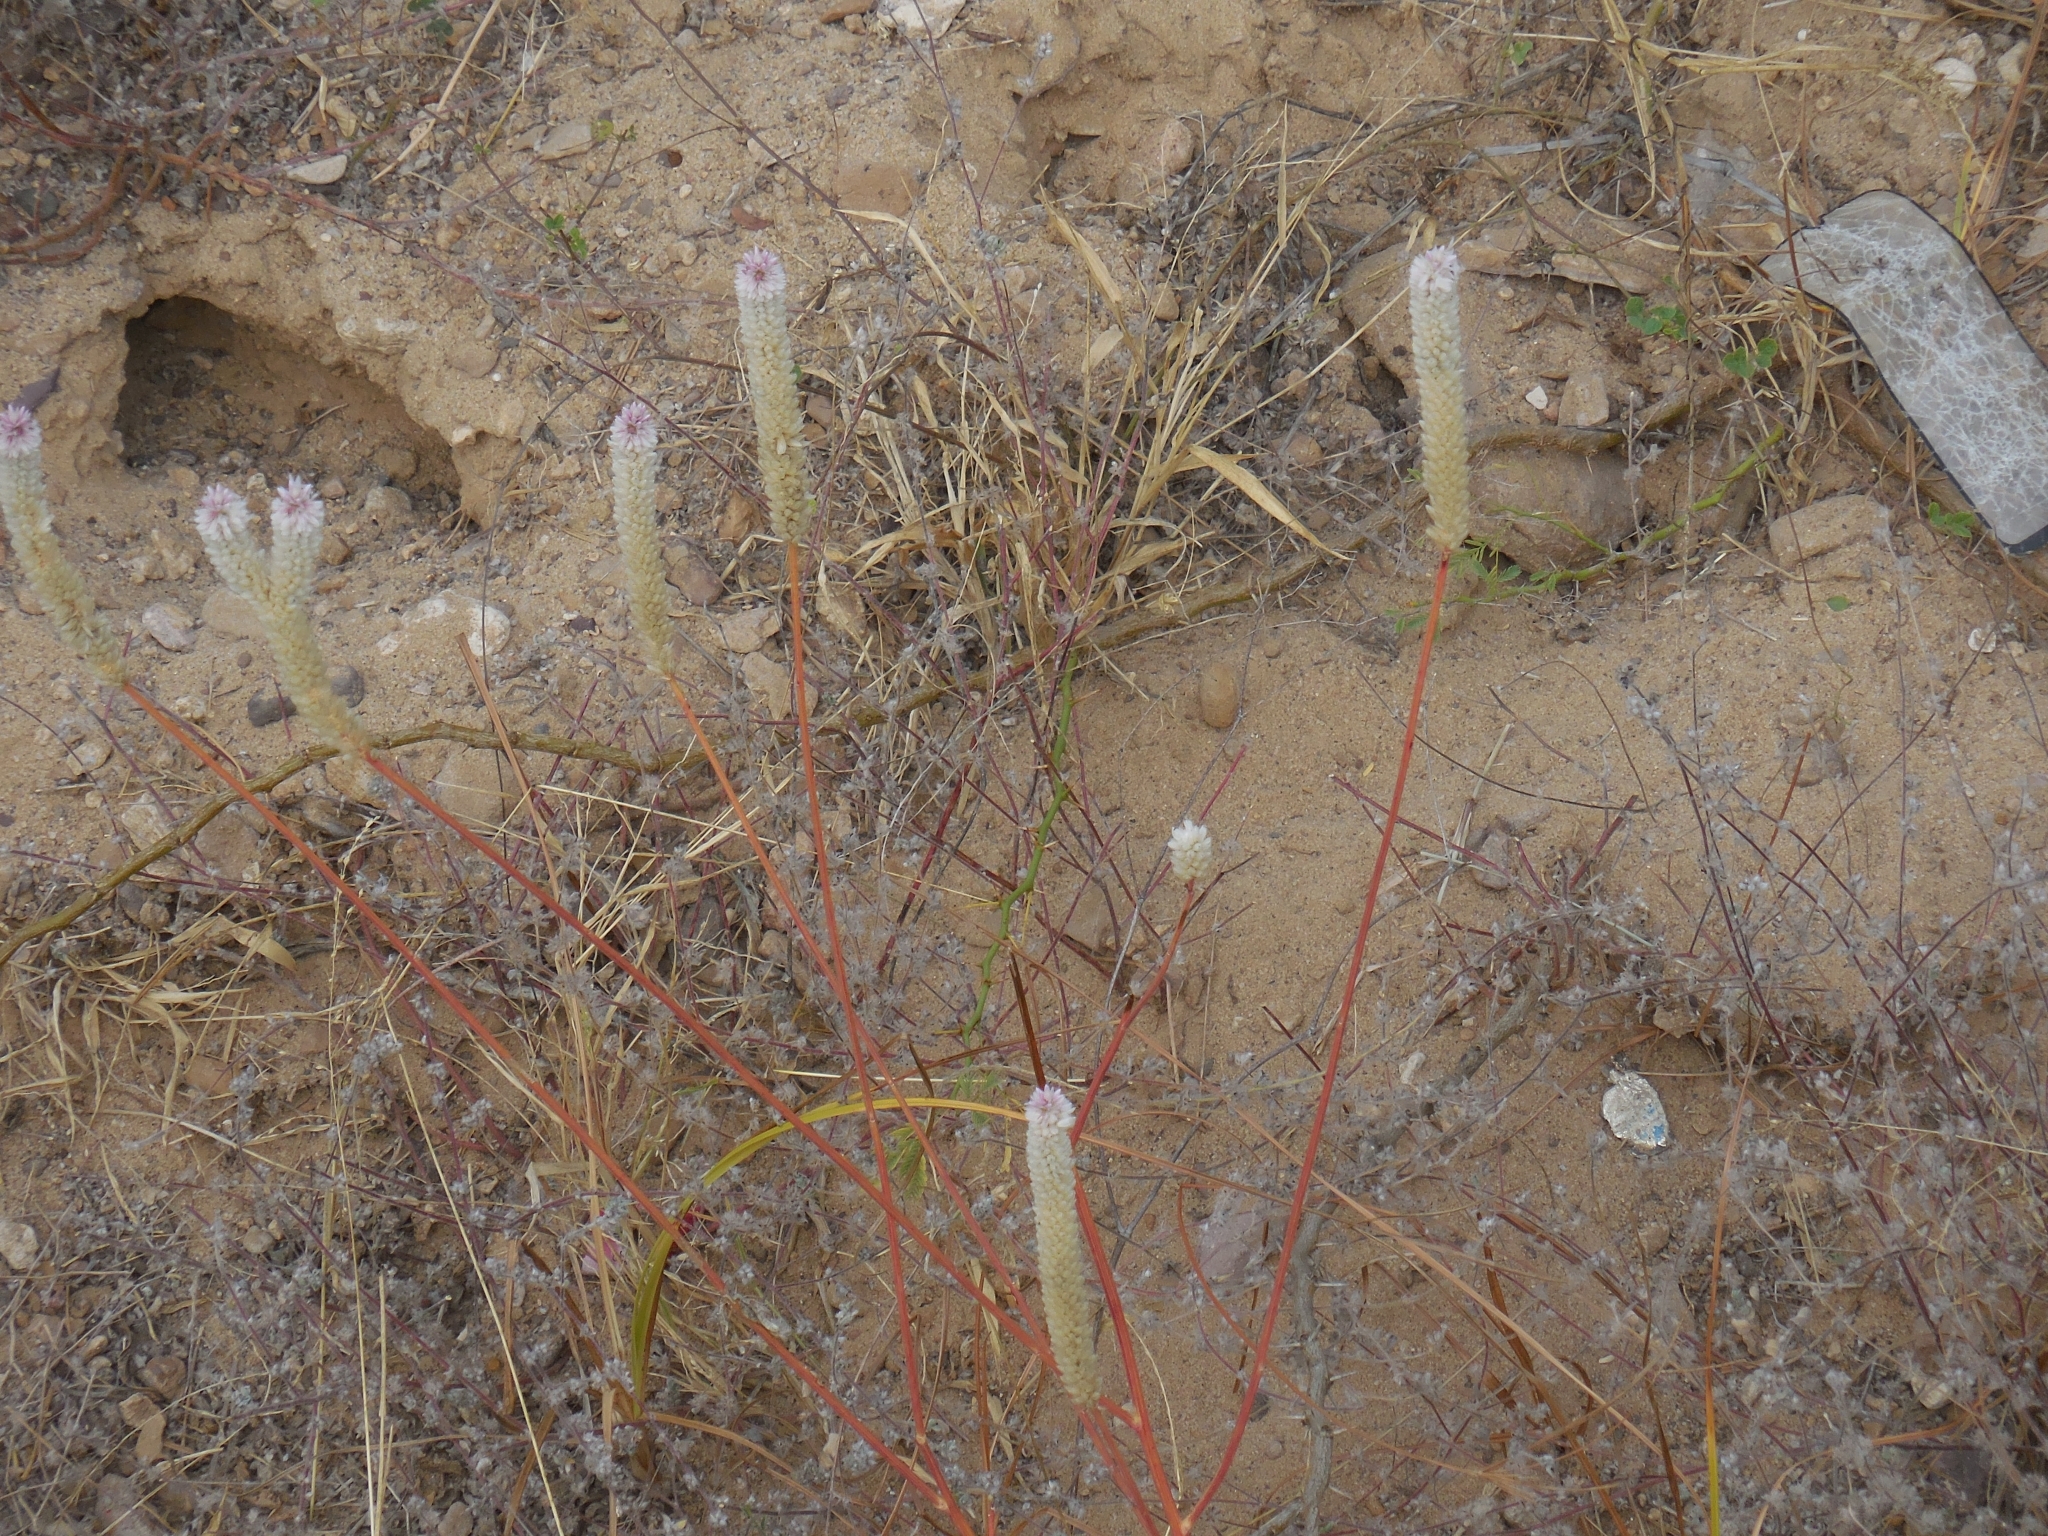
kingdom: Plantae
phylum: Tracheophyta
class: Magnoliopsida
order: Caryophyllales
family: Amaranthaceae
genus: Celosia
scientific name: Celosia argentea
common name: Feather cockscomb
